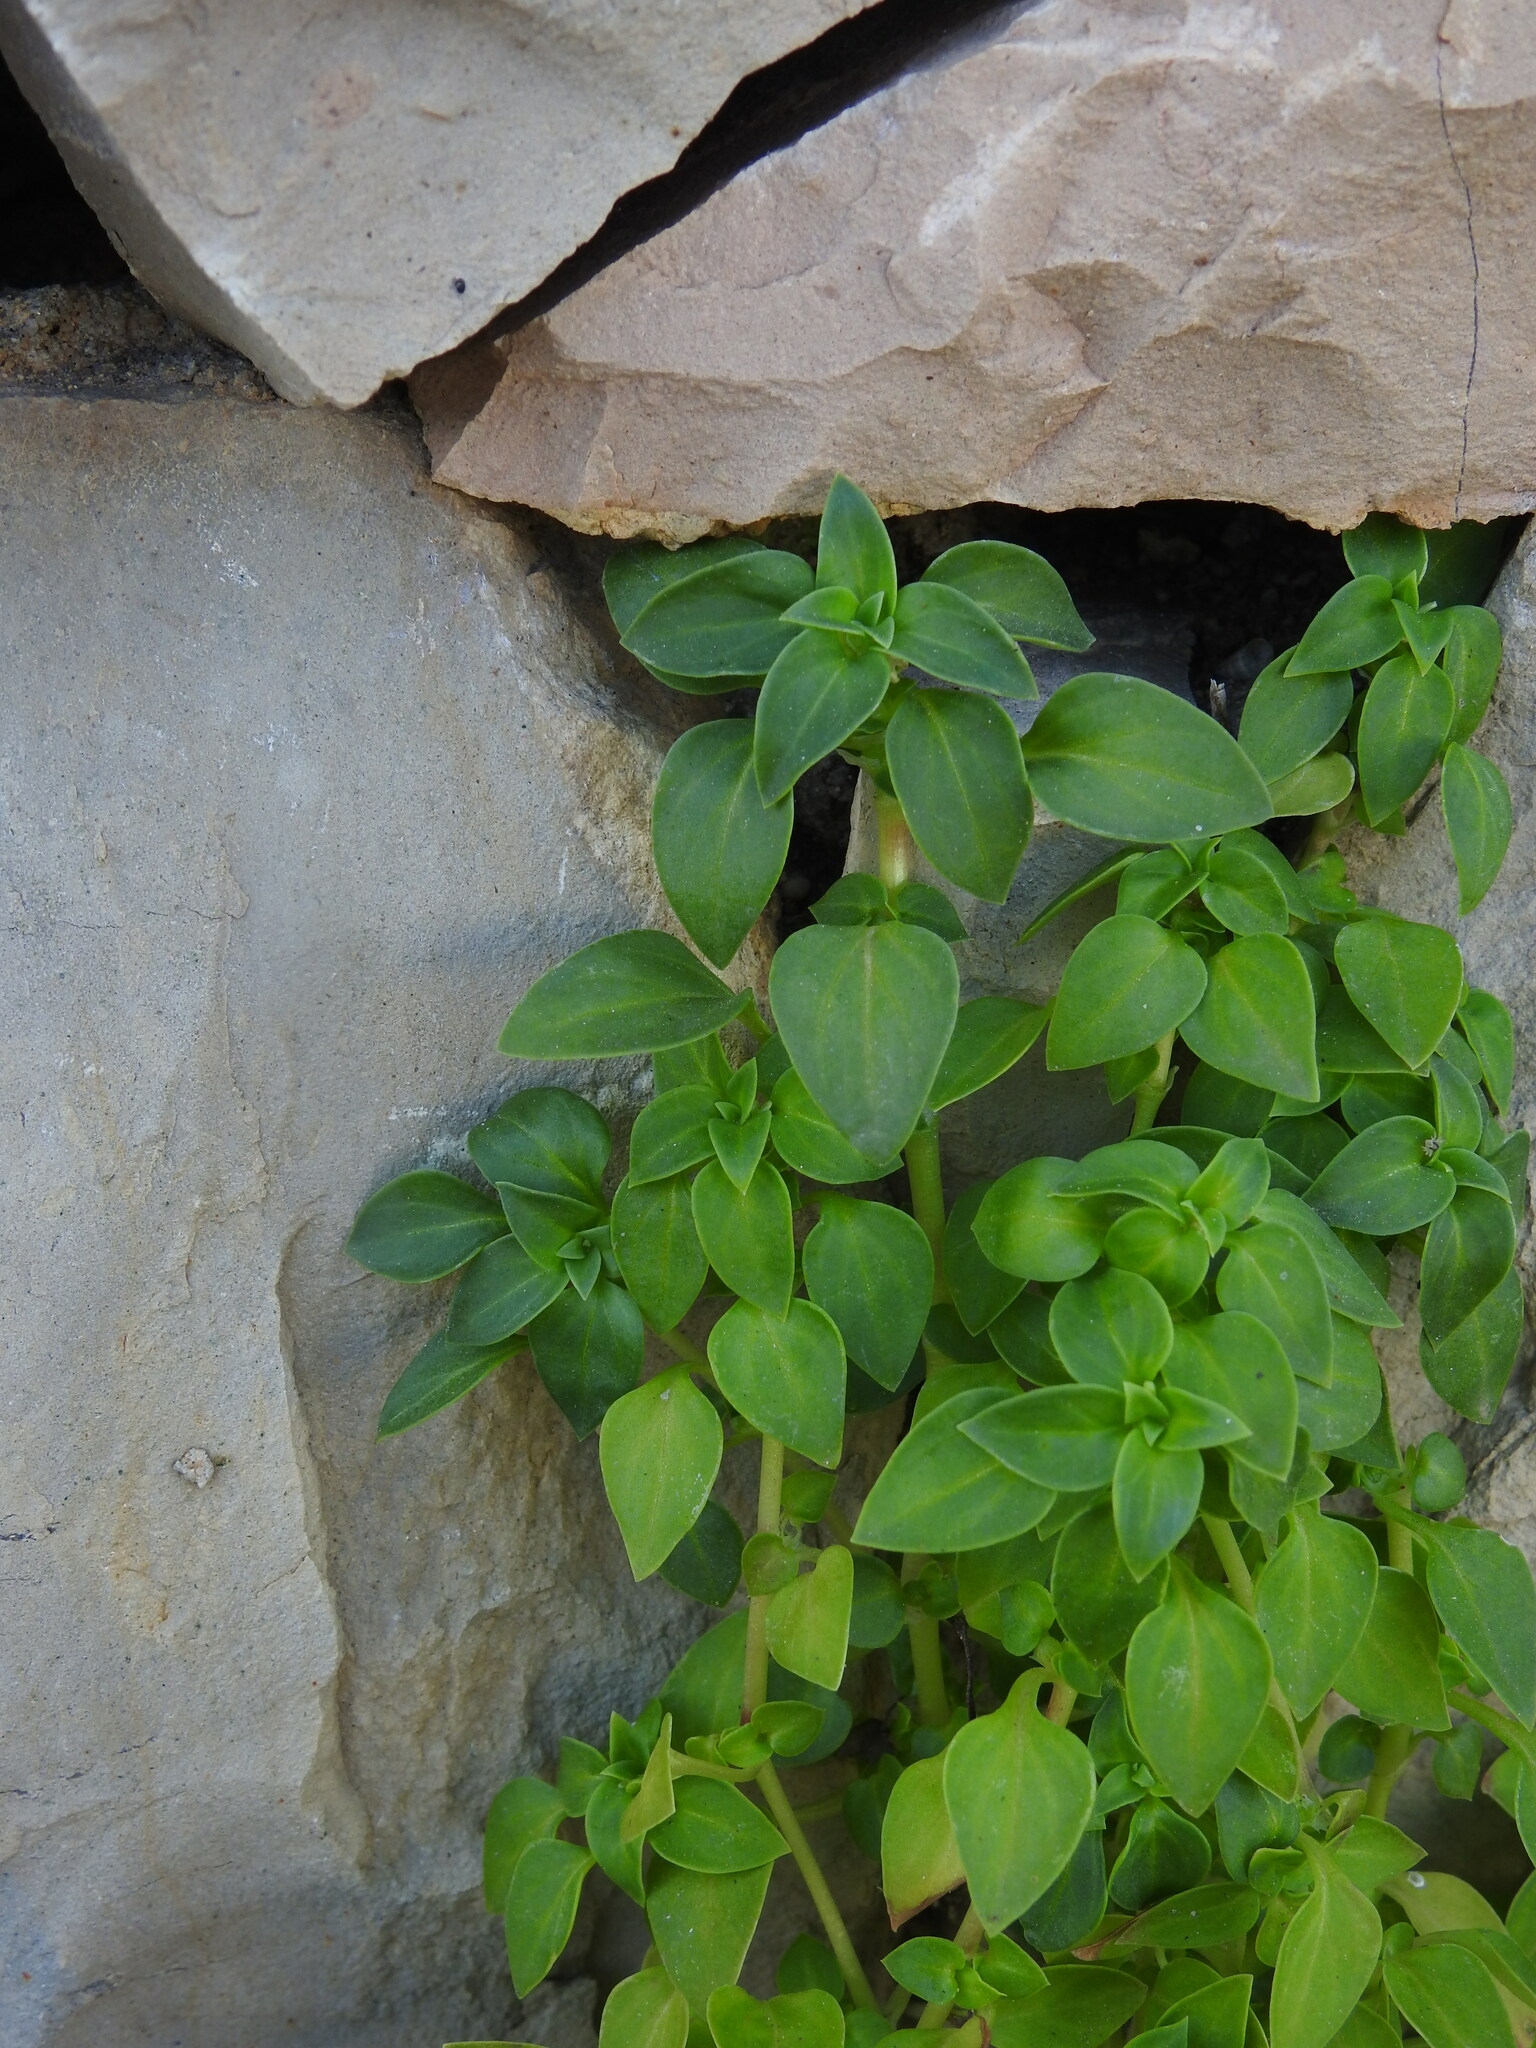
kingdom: Plantae
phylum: Tracheophyta
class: Magnoliopsida
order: Gentianales
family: Rubiaceae
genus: Theligonum
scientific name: Theligonum cynocrambe
